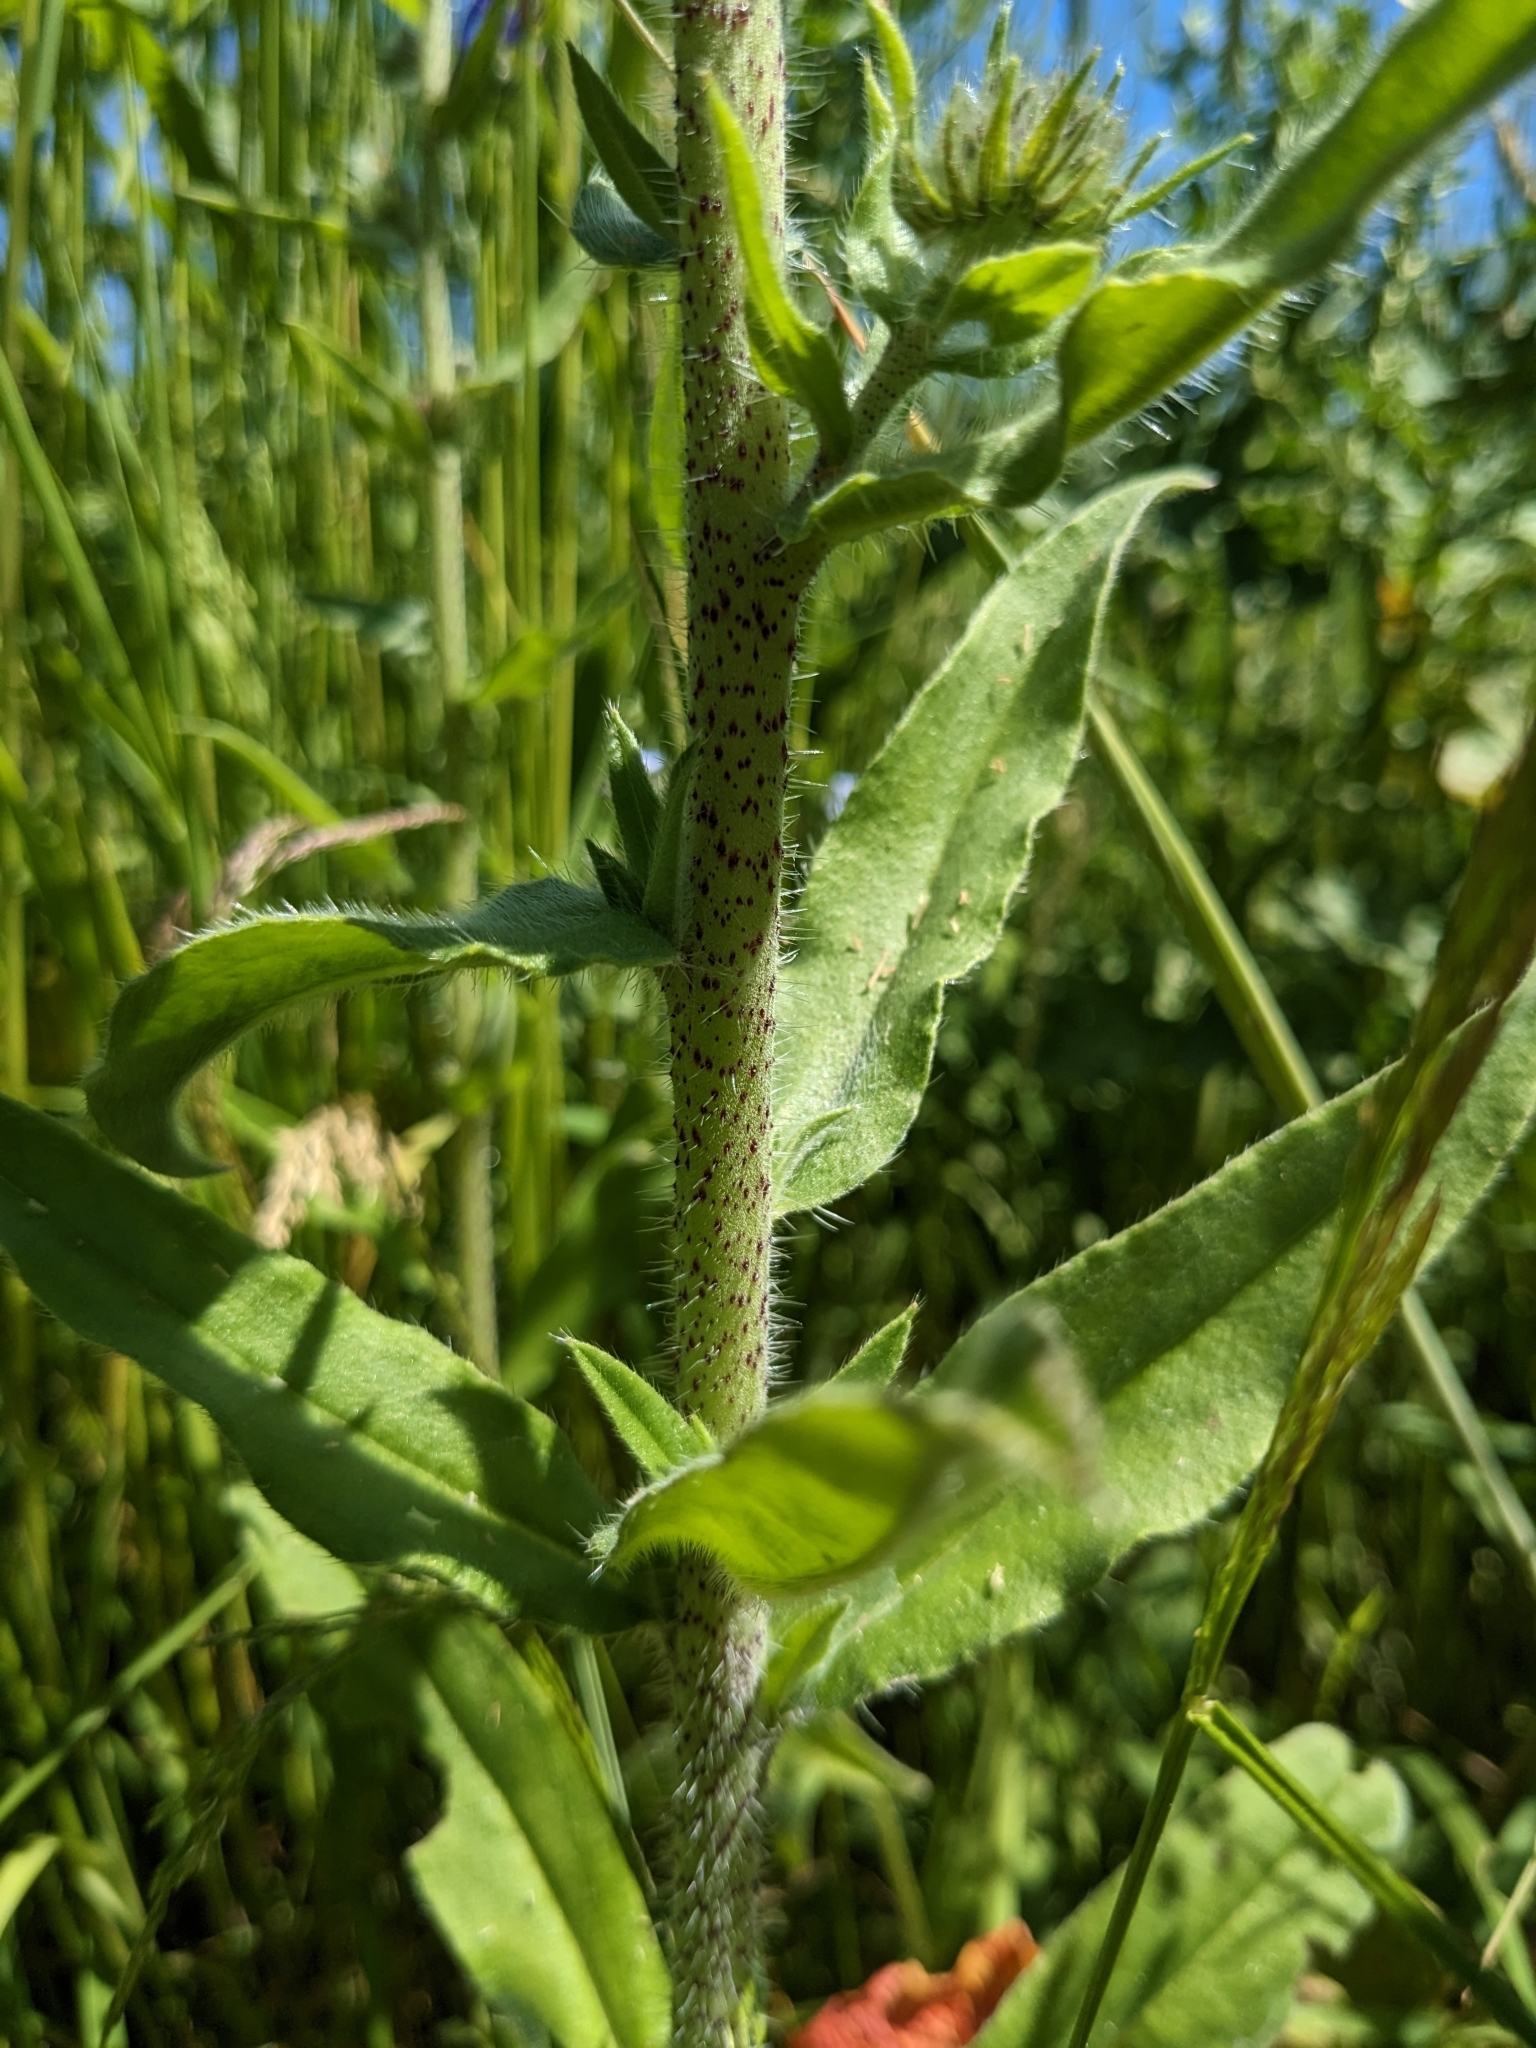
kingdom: Plantae
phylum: Tracheophyta
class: Magnoliopsida
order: Boraginales
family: Boraginaceae
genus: Echium
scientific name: Echium vulgare
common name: Common viper's bugloss
